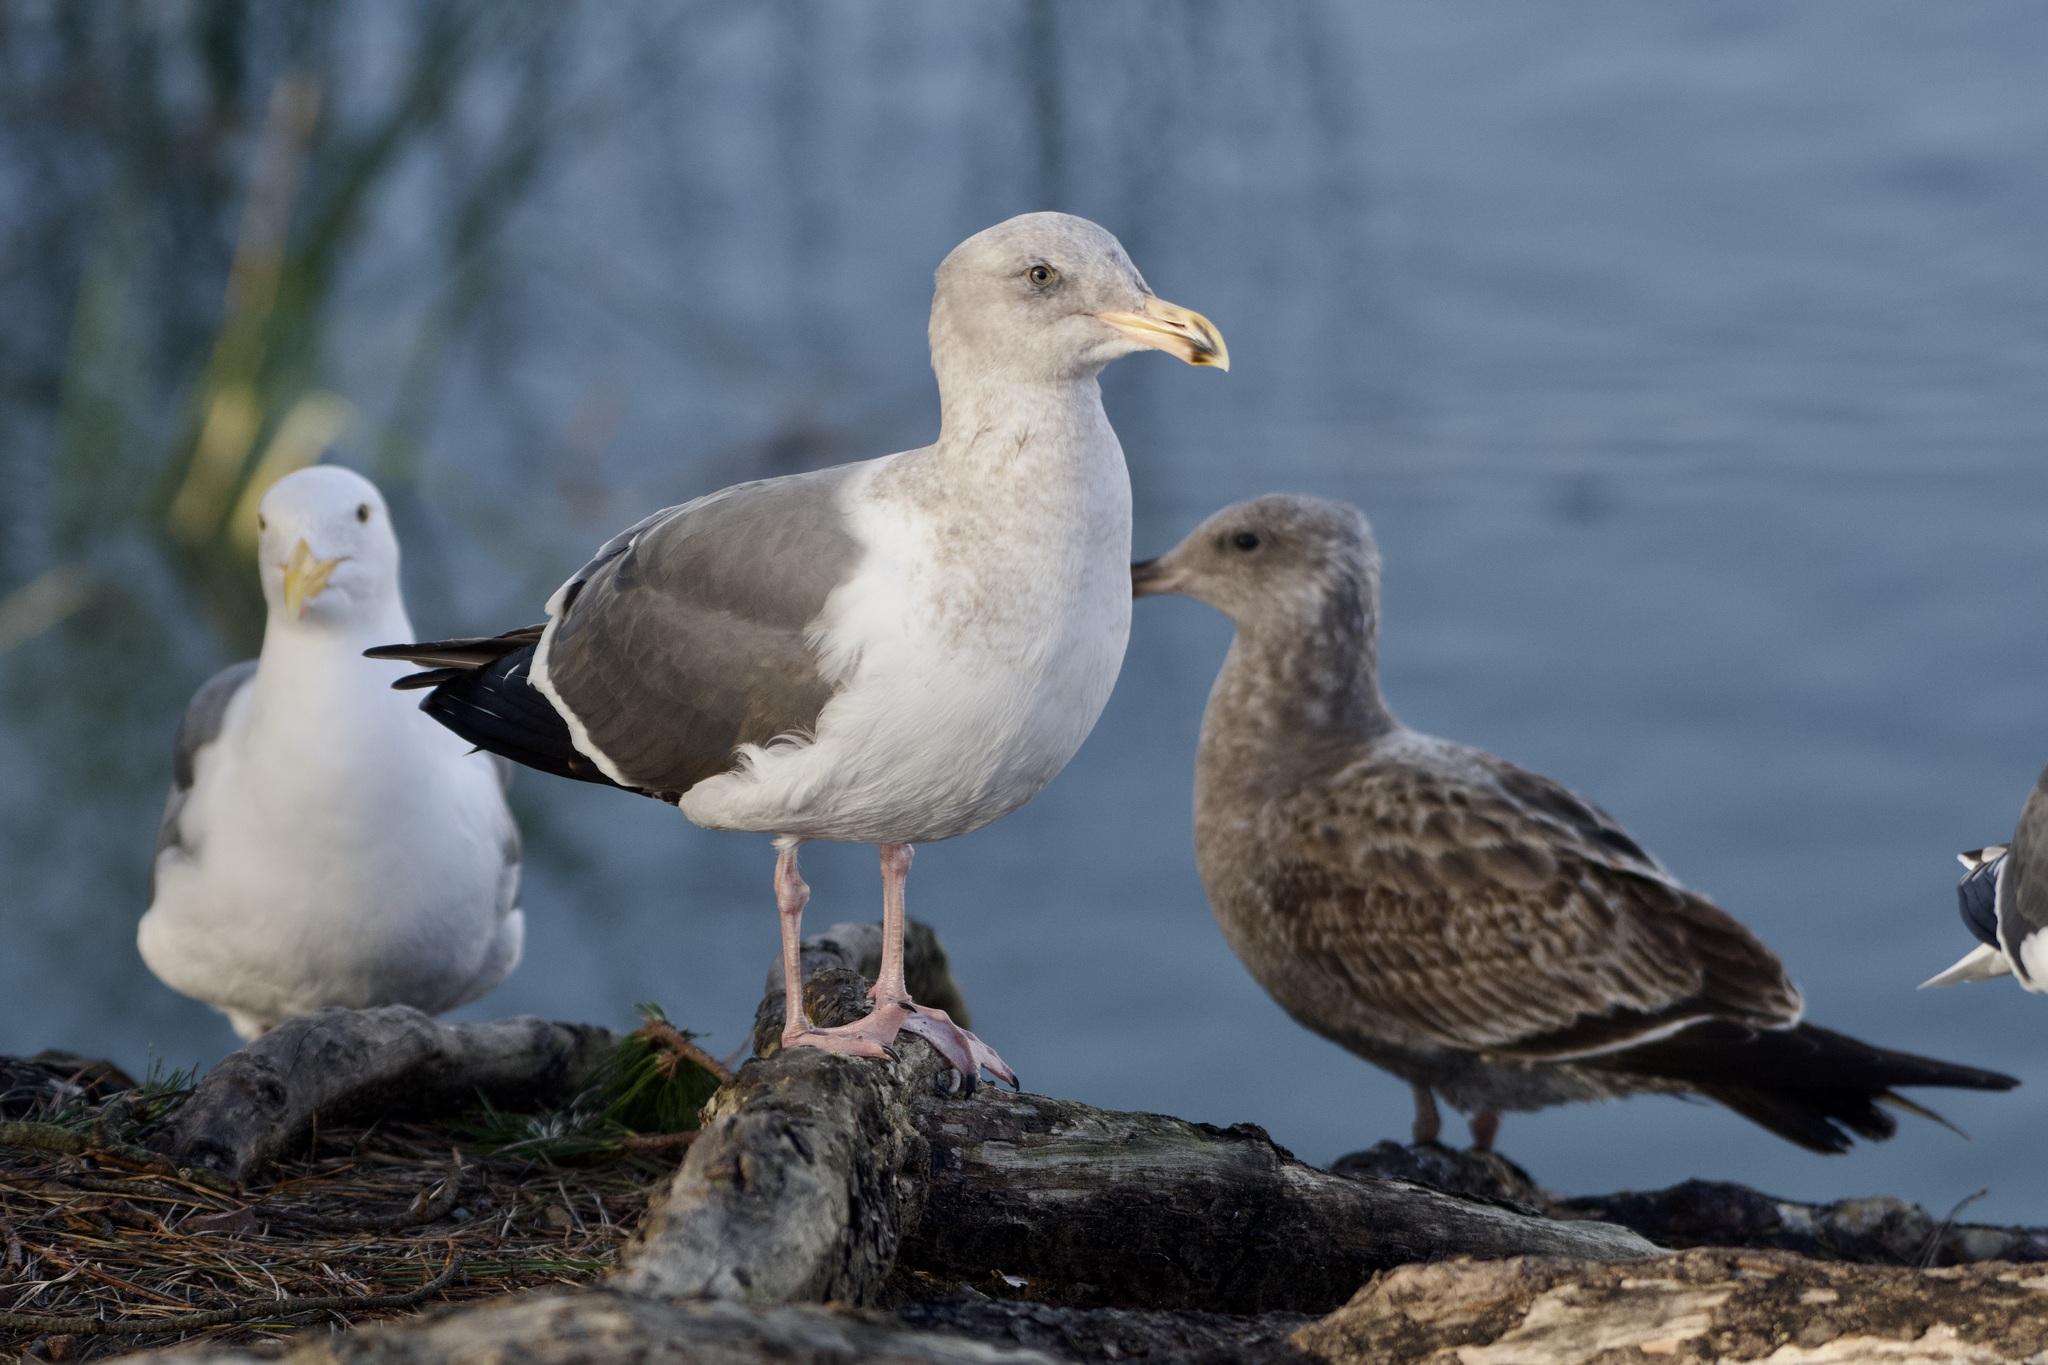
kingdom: Animalia
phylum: Chordata
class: Aves
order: Charadriiformes
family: Laridae
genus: Larus
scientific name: Larus occidentalis
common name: Western gull
